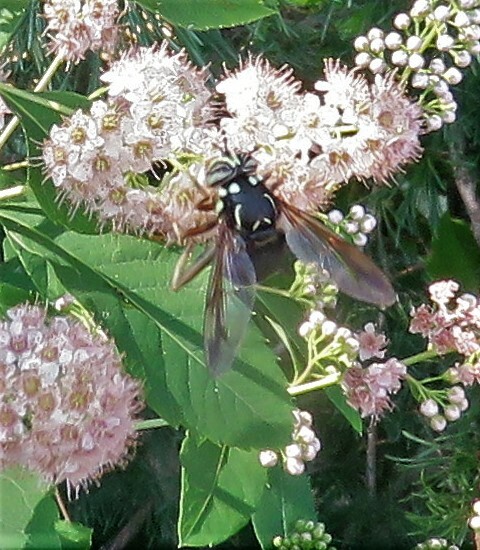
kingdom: Animalia
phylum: Arthropoda
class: Insecta
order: Diptera
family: Syrphidae
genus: Spilomyia
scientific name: Spilomyia fusca
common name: Bald-faced hornet fly
